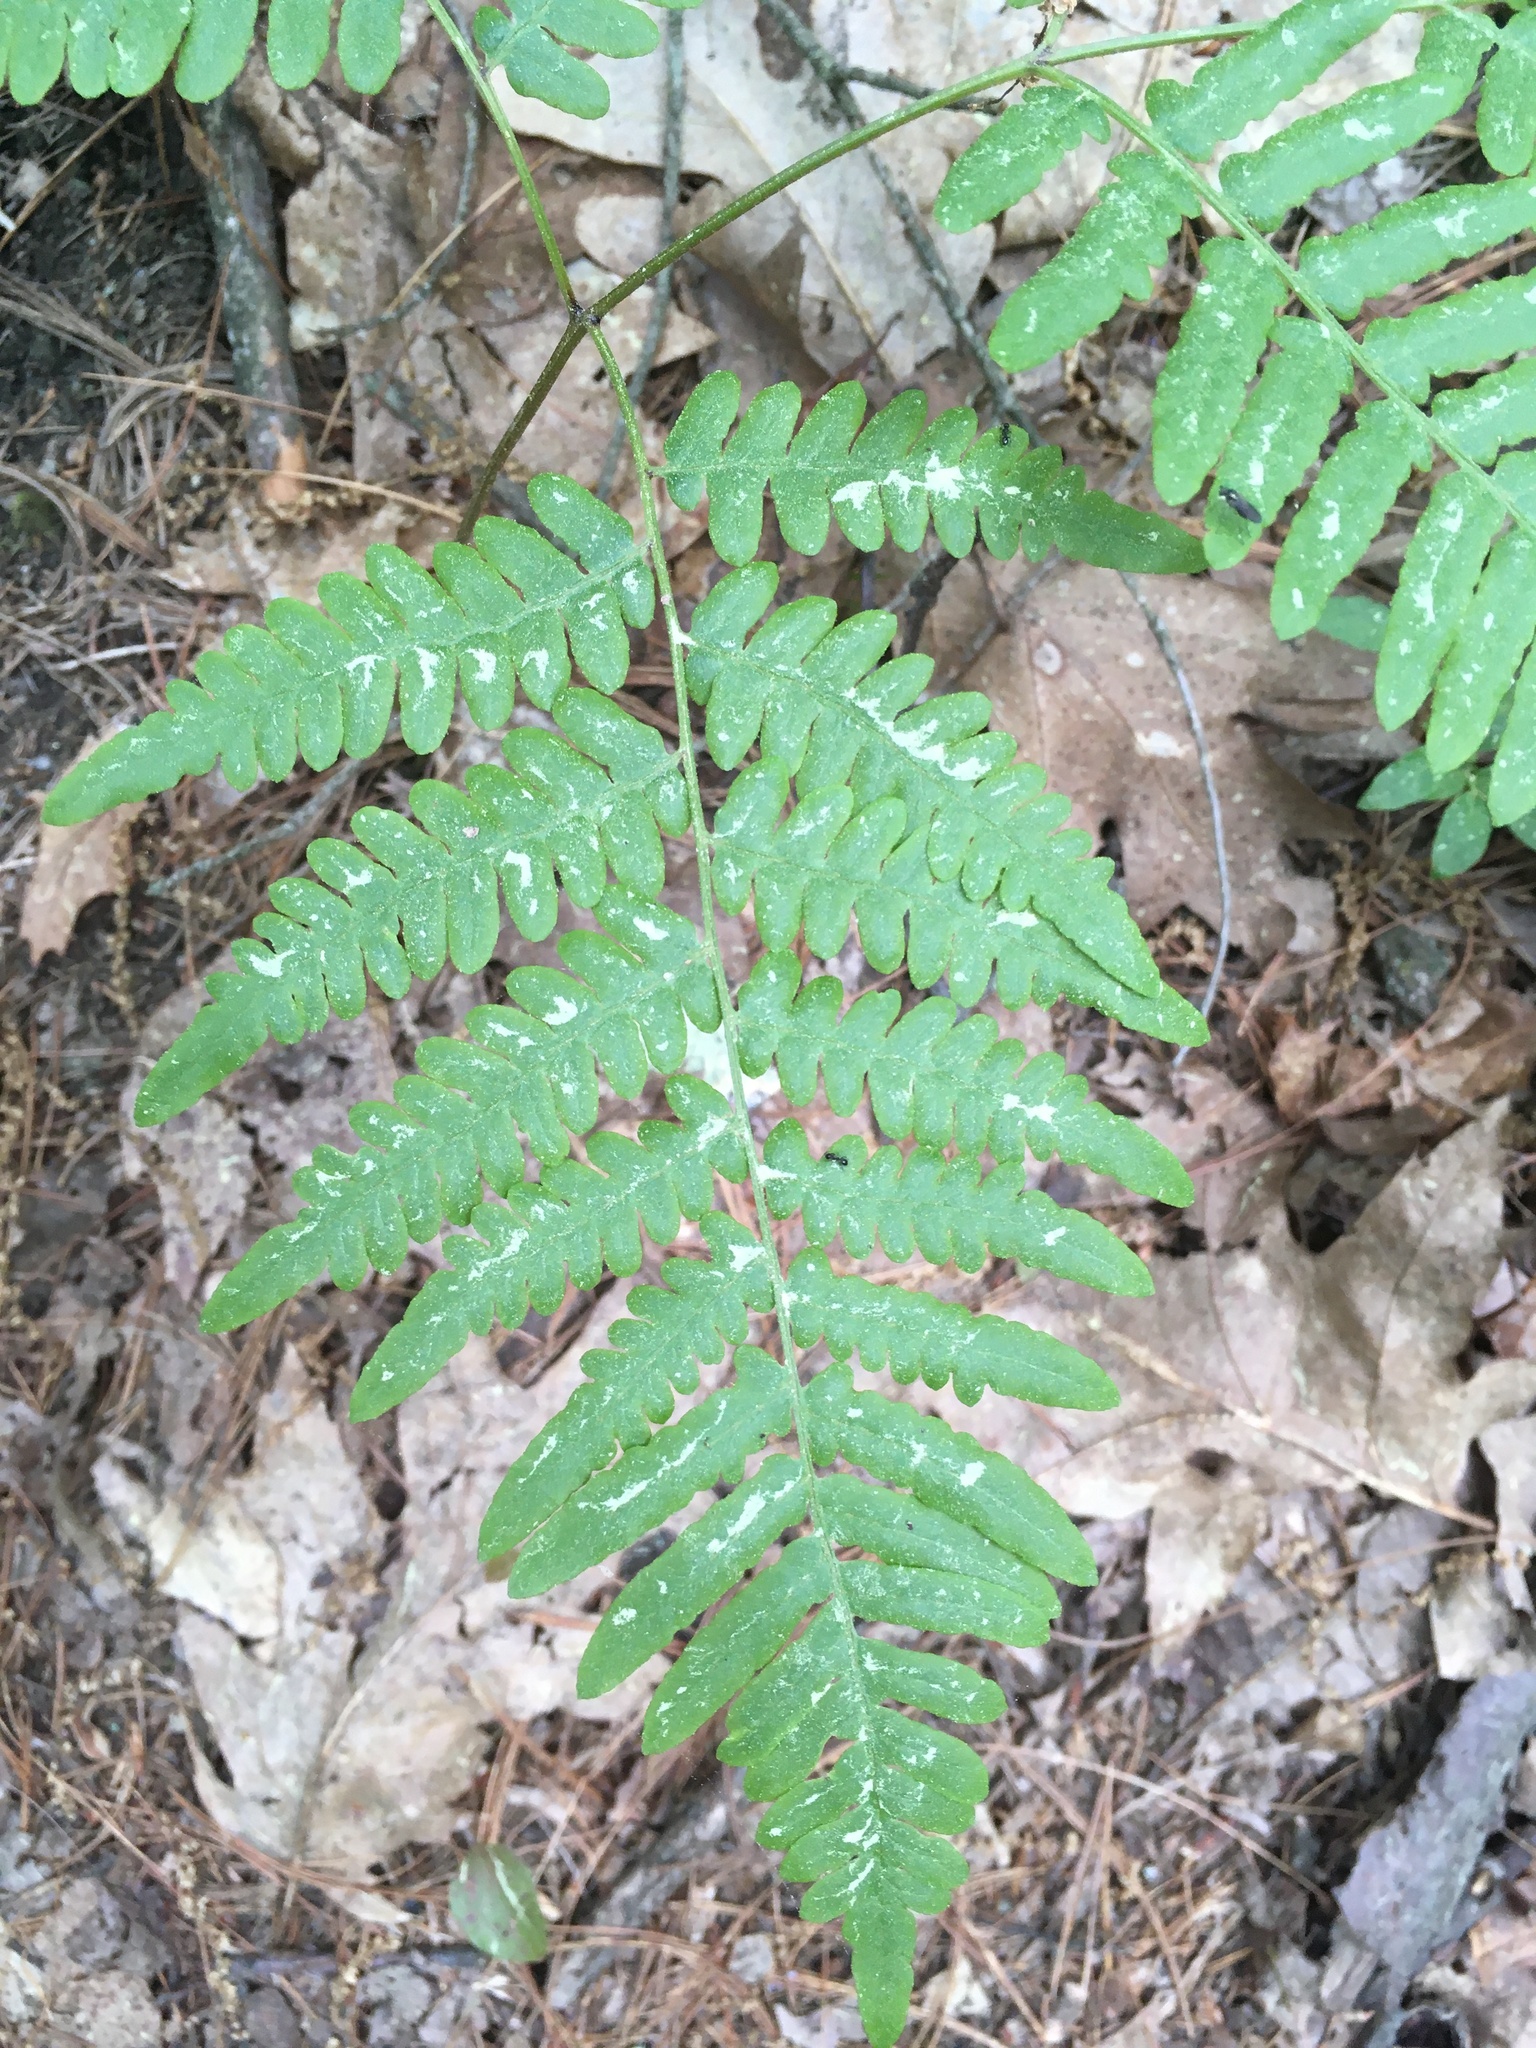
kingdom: Plantae
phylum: Tracheophyta
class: Polypodiopsida
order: Polypodiales
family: Dennstaedtiaceae
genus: Pteridium
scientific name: Pteridium aquilinum
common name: Bracken
